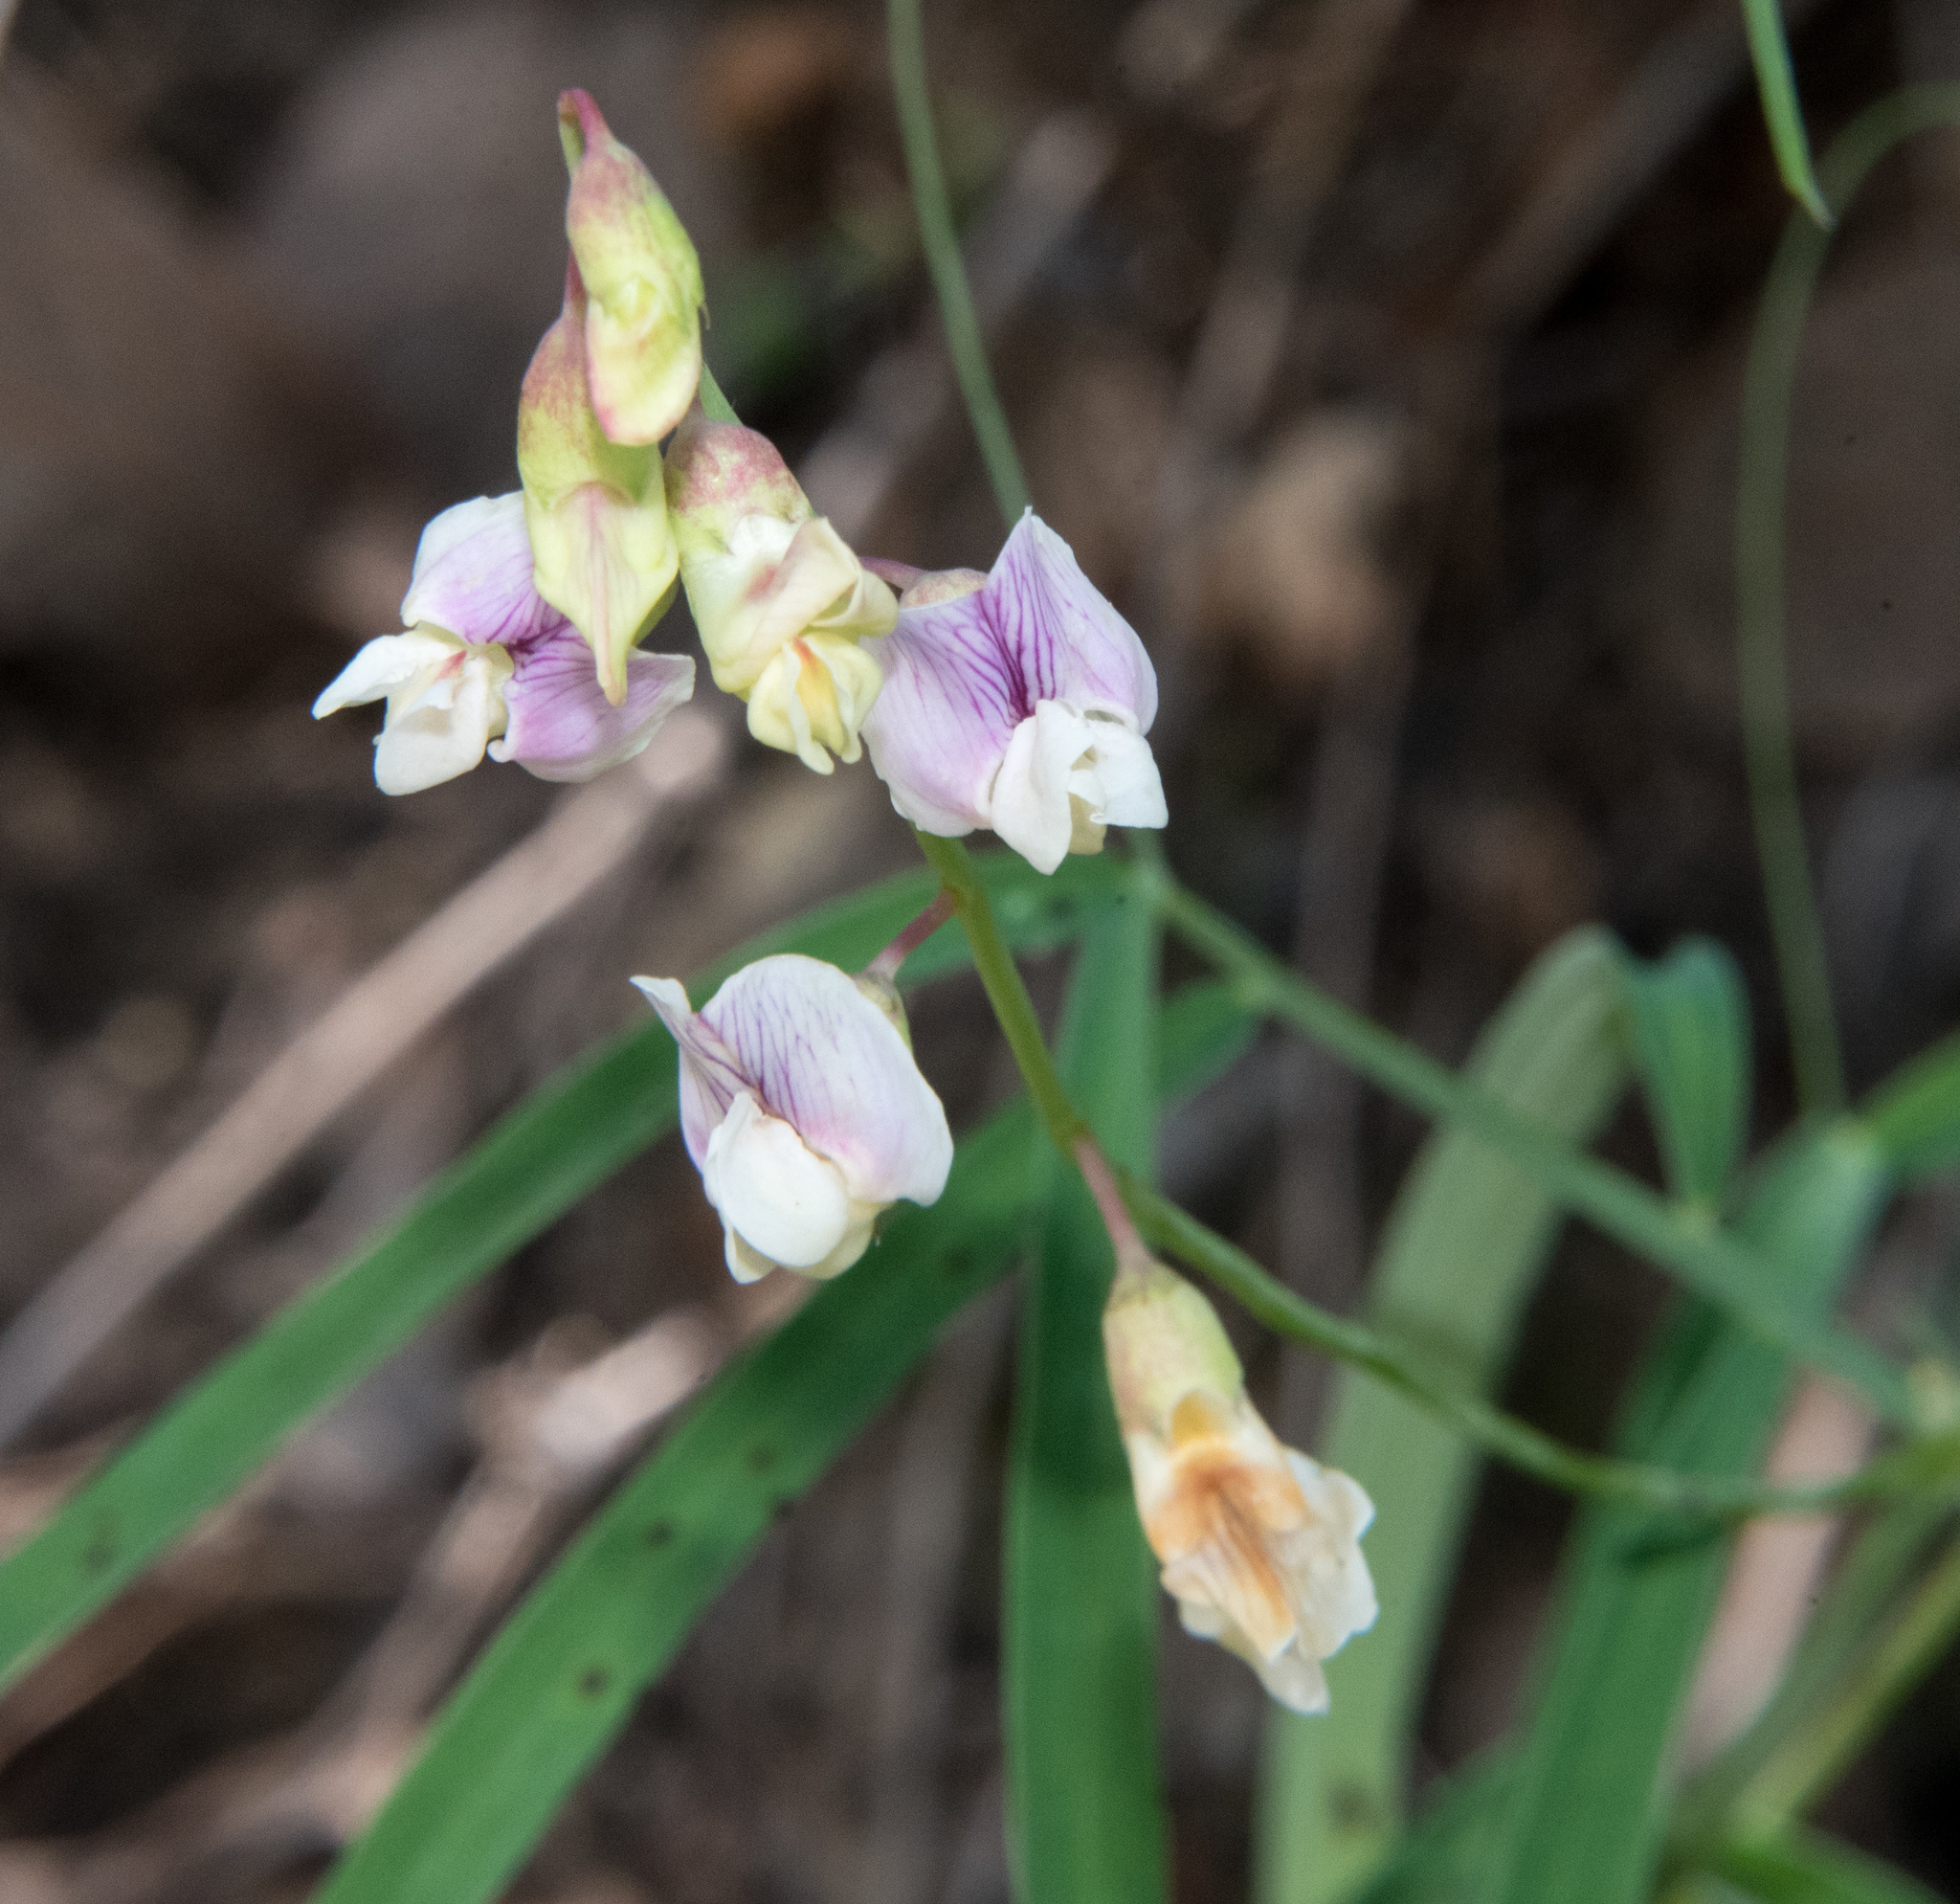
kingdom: Plantae
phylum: Tracheophyta
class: Magnoliopsida
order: Fabales
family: Fabaceae
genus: Lathyrus
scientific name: Lathyrus graminifolius
